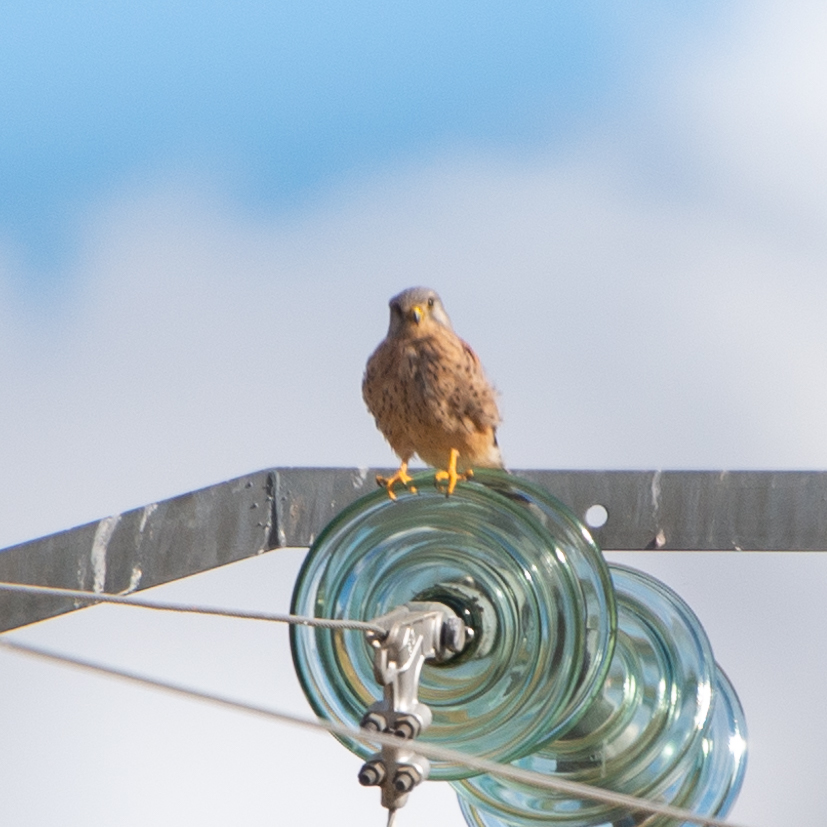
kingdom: Animalia
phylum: Chordata
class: Aves
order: Falconiformes
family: Falconidae
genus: Falco
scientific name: Falco tinnunculus
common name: Common kestrel
